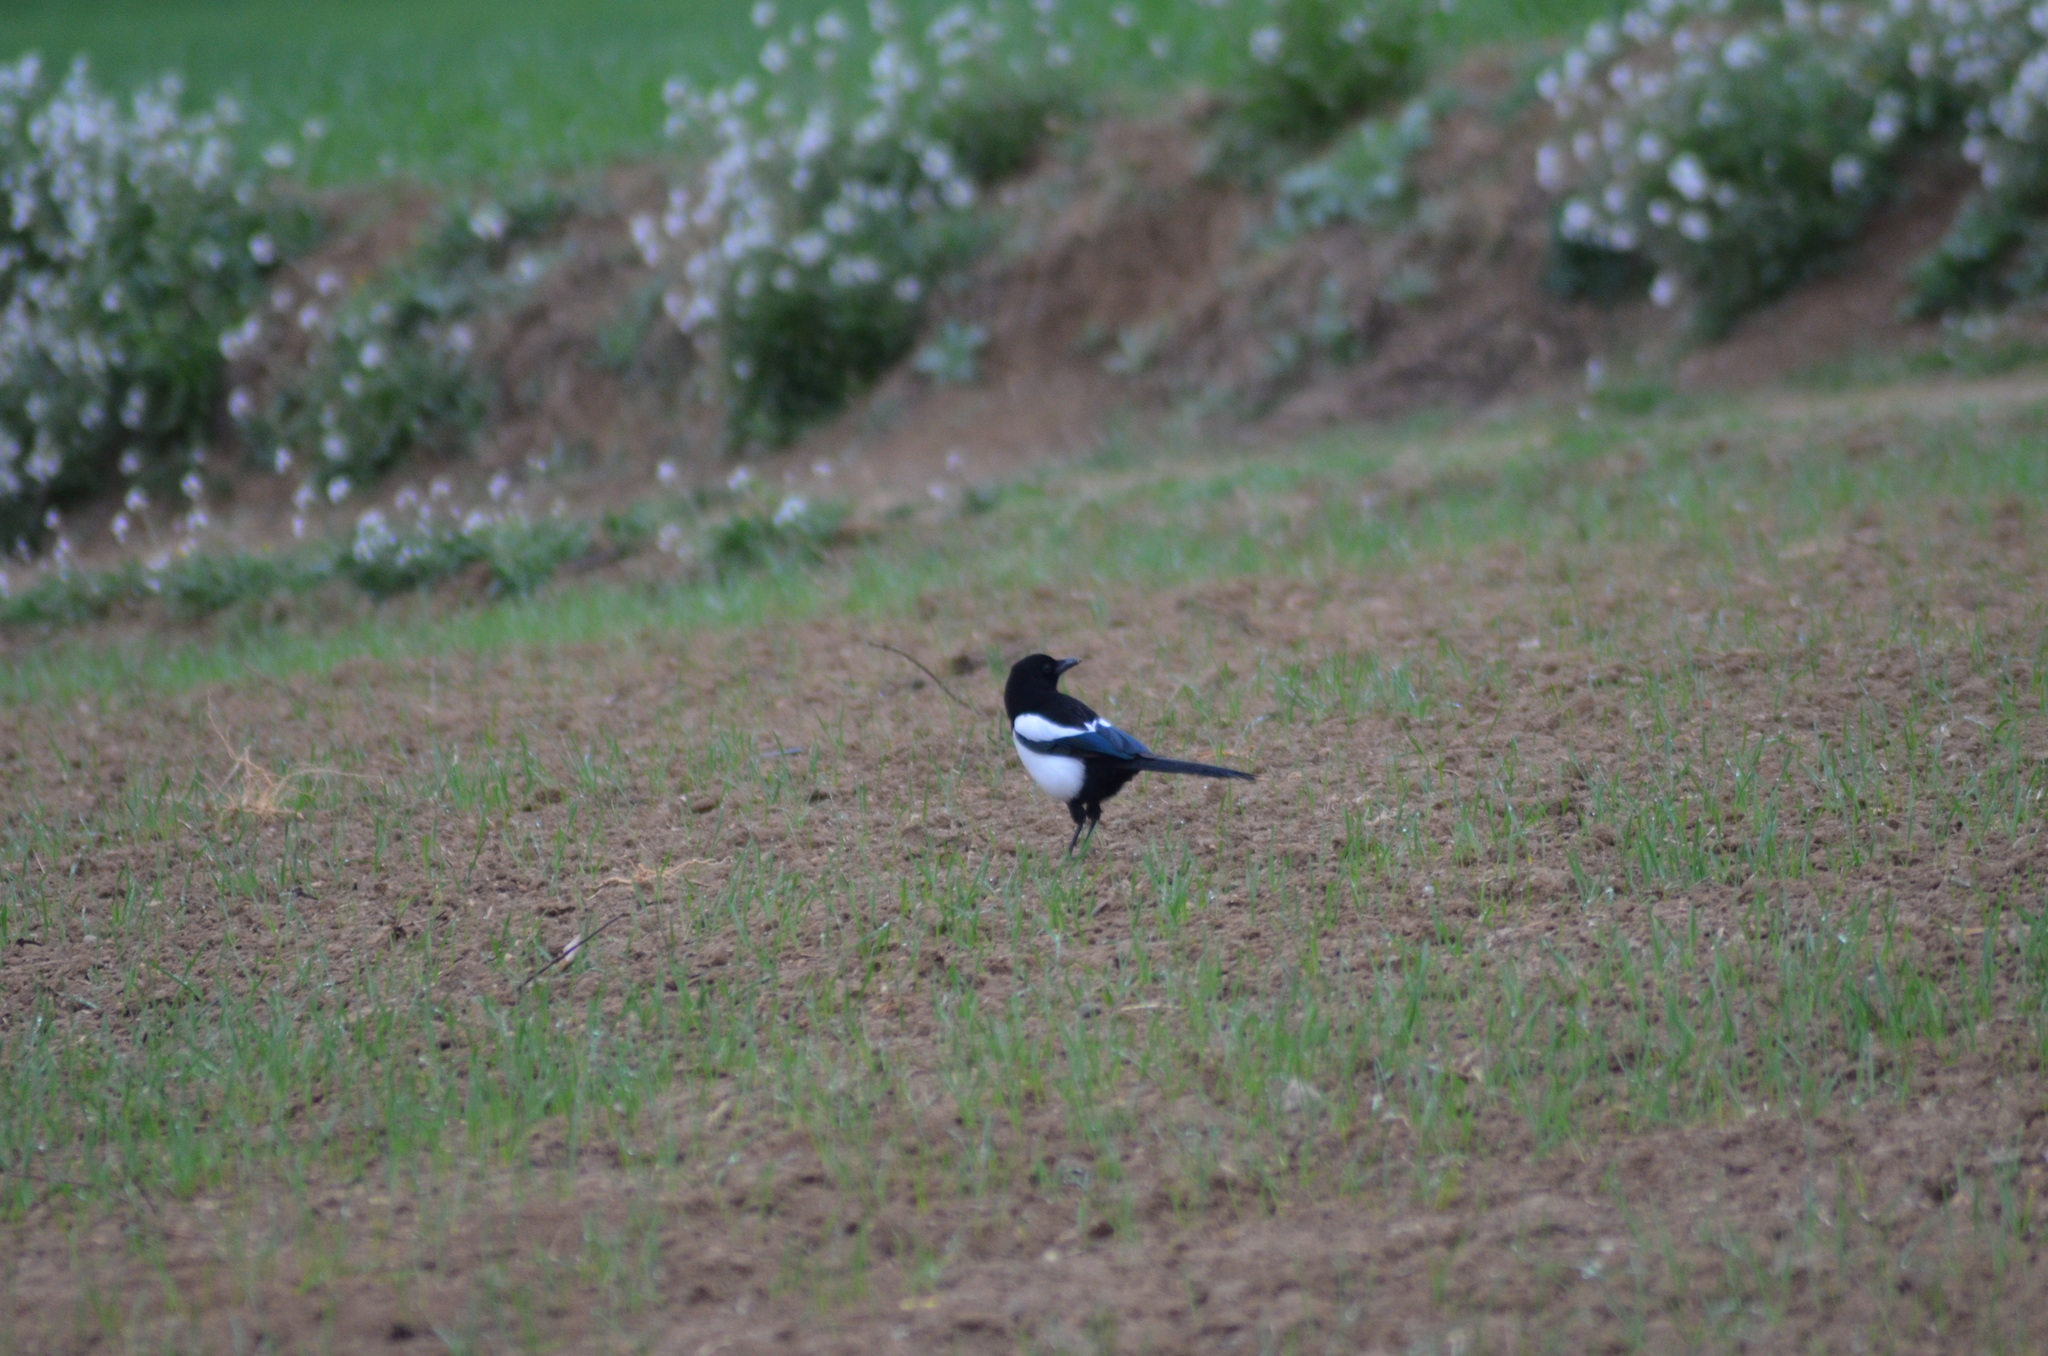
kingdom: Animalia
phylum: Chordata
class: Aves
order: Passeriformes
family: Corvidae
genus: Pica
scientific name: Pica pica
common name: Eurasian magpie
